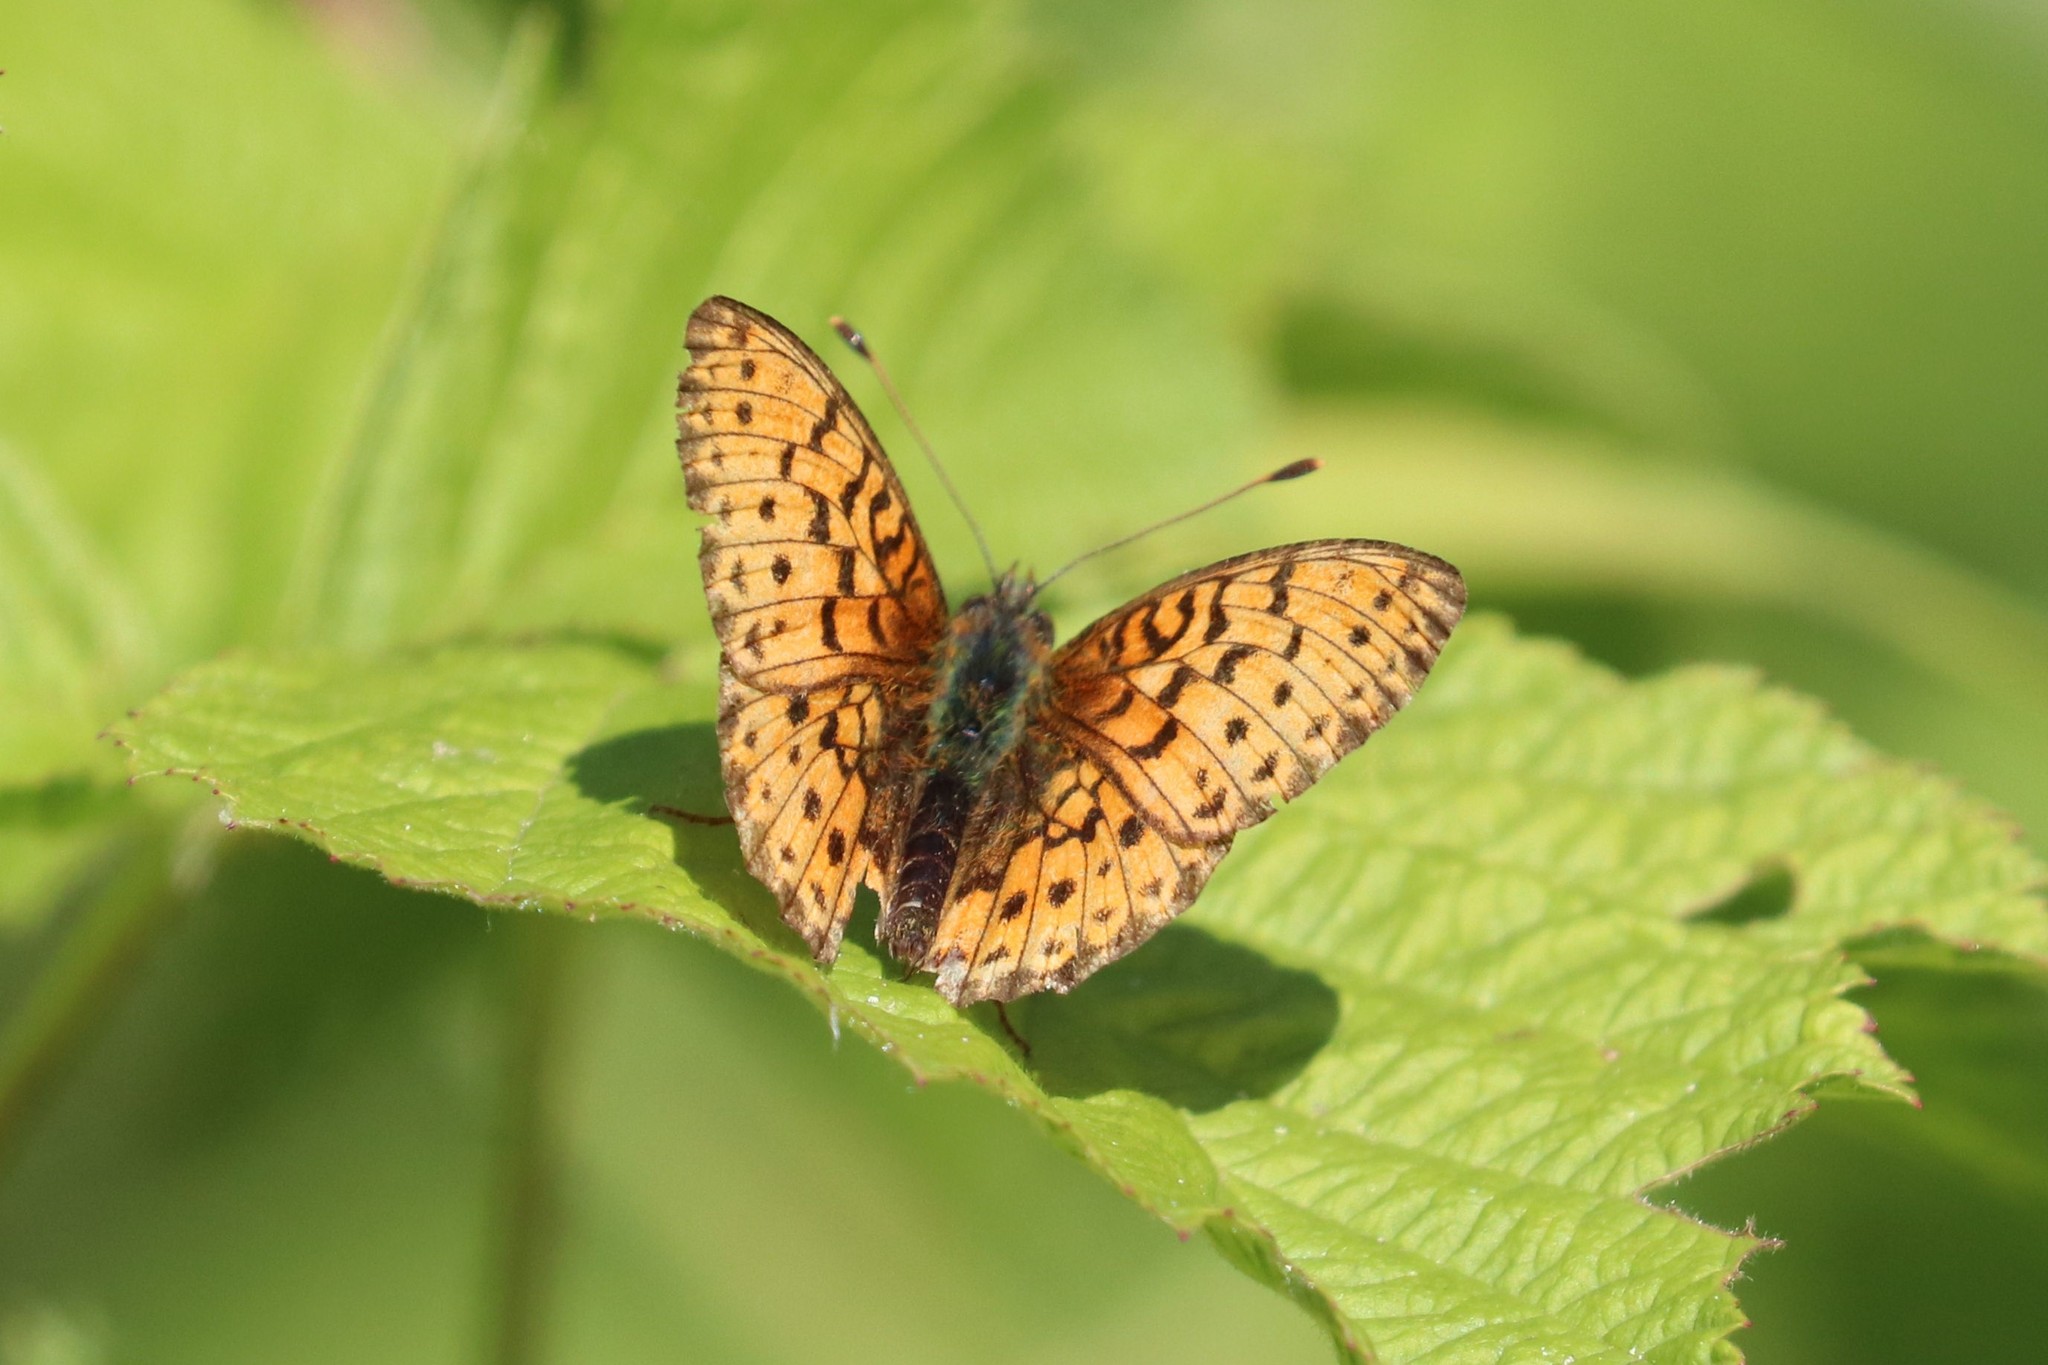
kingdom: Animalia
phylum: Arthropoda
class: Insecta
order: Lepidoptera
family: Nymphalidae
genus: Brenthis
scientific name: Brenthis ino
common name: Lesser marbled fritillary
